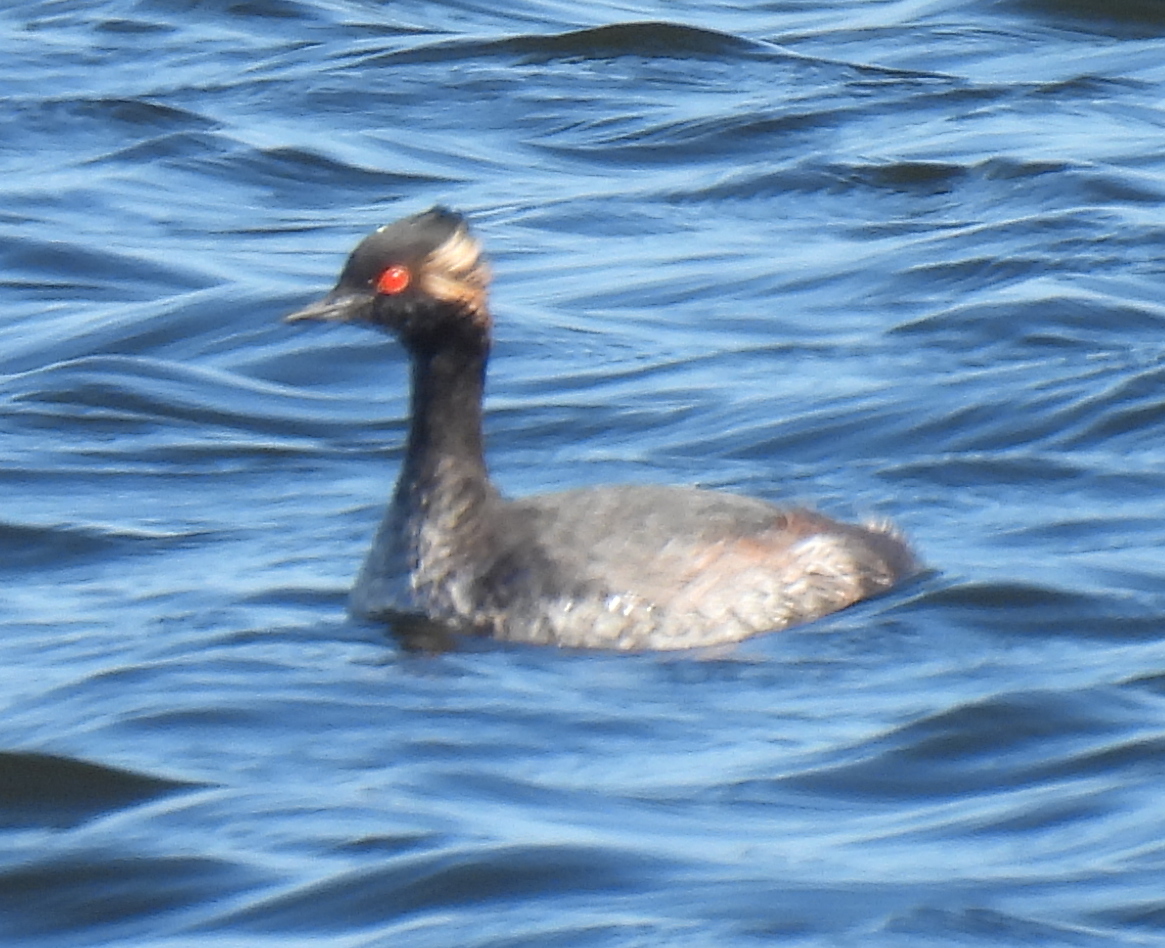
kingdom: Animalia
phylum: Chordata
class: Aves
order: Podicipediformes
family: Podicipedidae
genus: Podiceps
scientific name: Podiceps nigricollis
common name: Black-necked grebe
